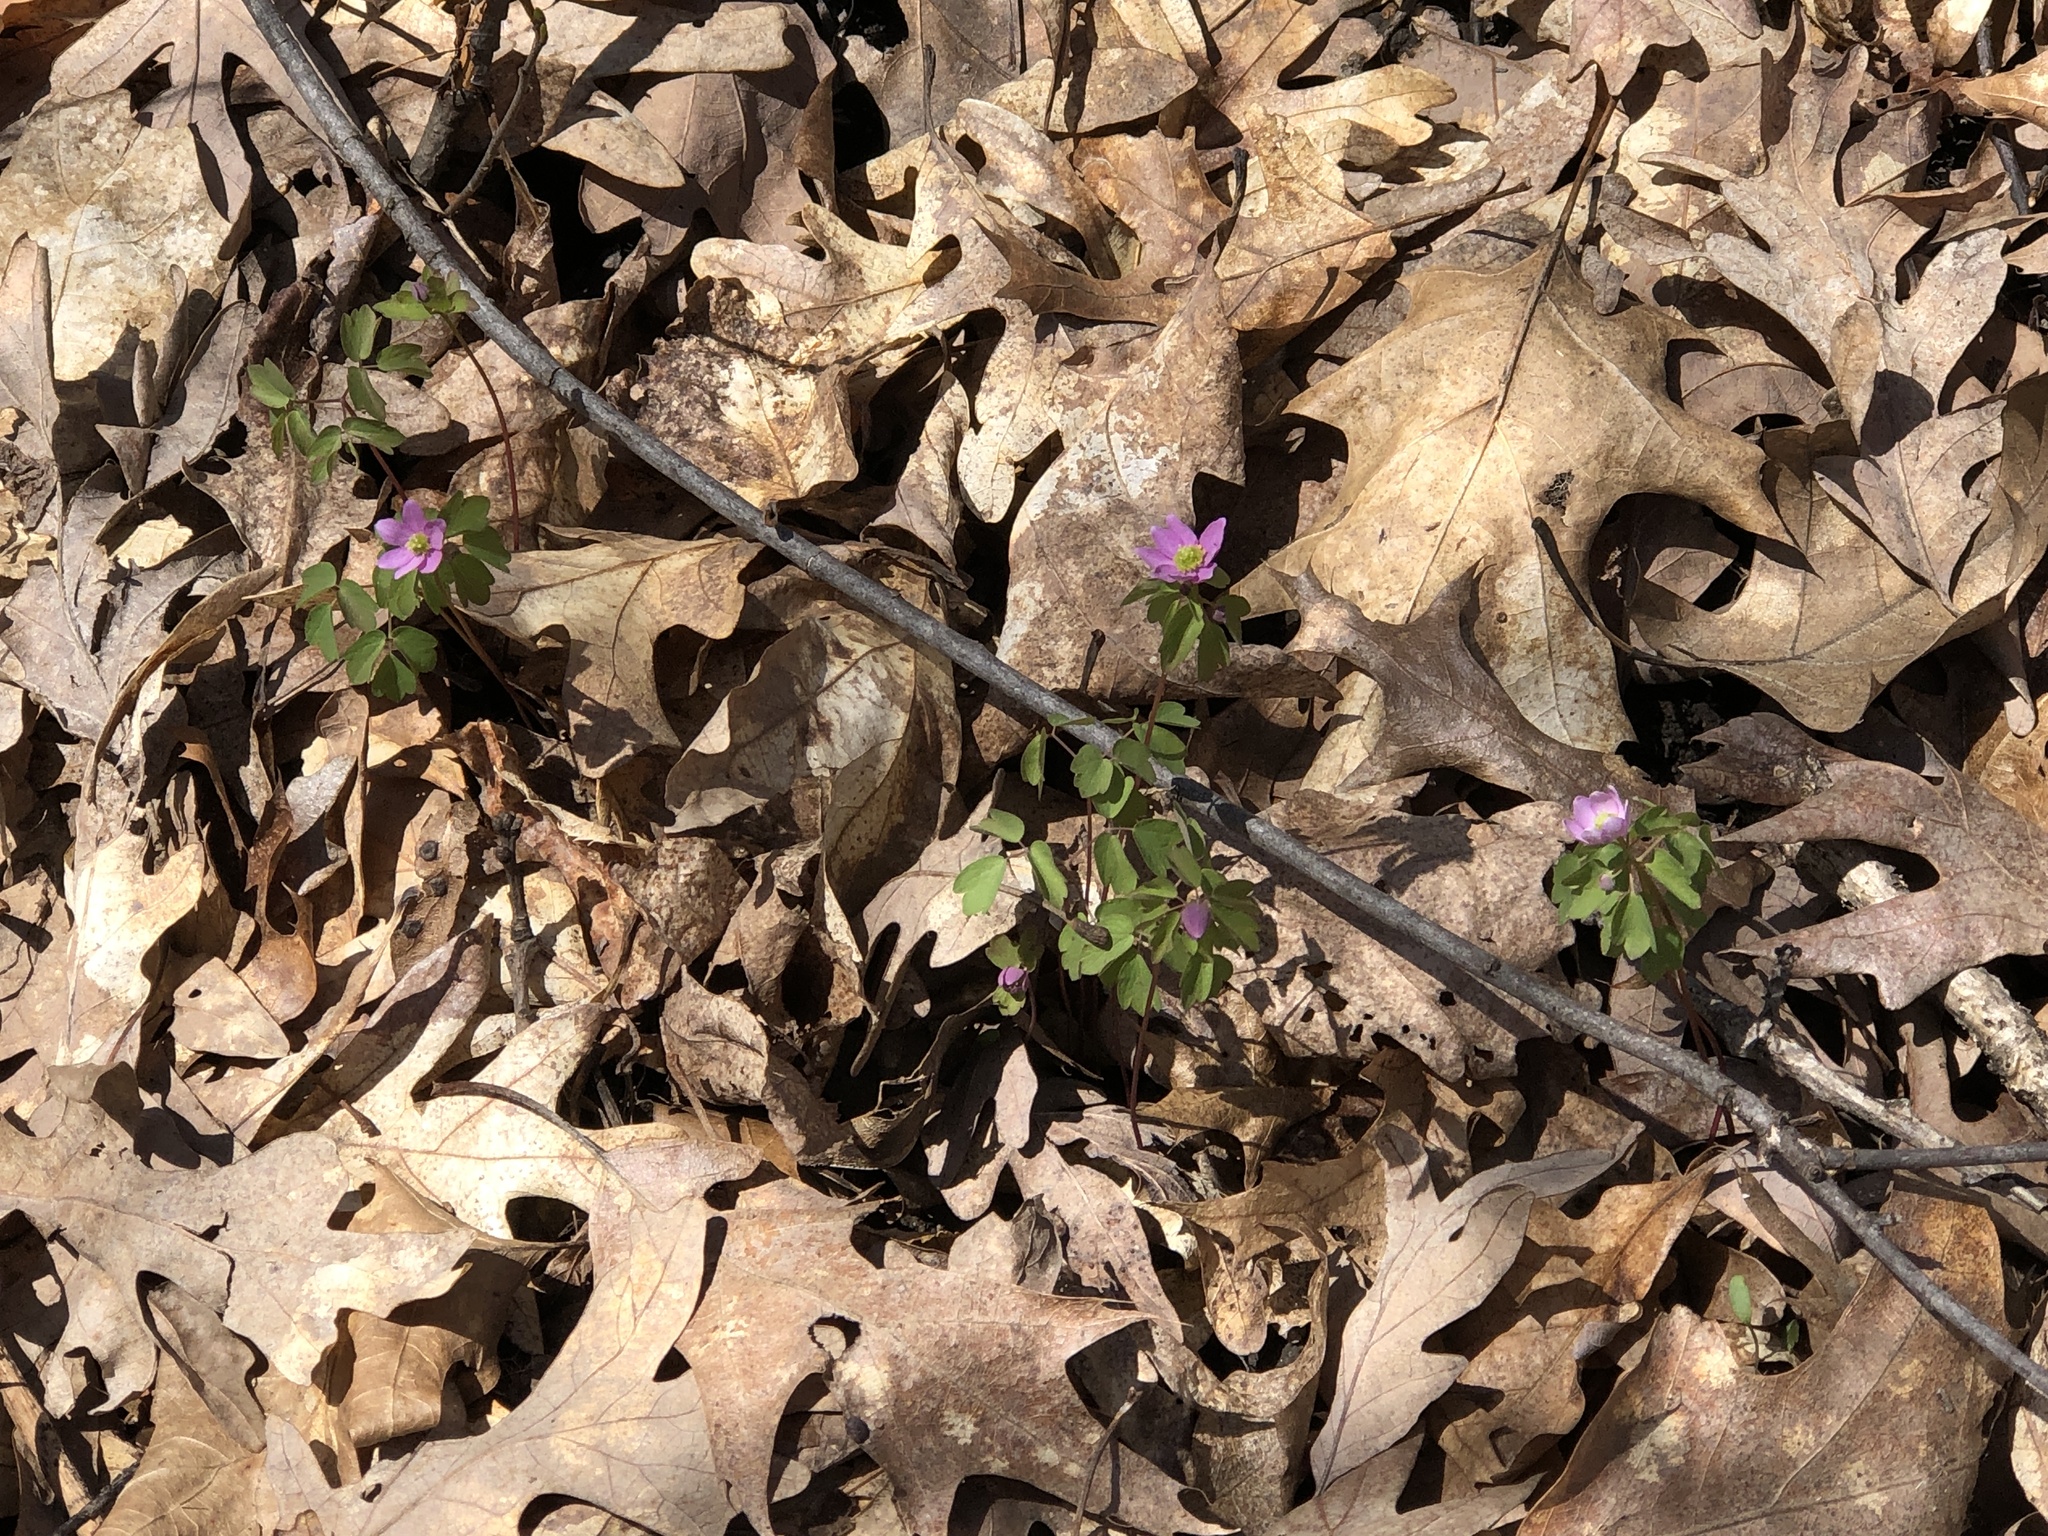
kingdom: Plantae
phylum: Tracheophyta
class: Magnoliopsida
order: Ranunculales
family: Ranunculaceae
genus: Thalictrum
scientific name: Thalictrum thalictroides
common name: Rue-anemone
